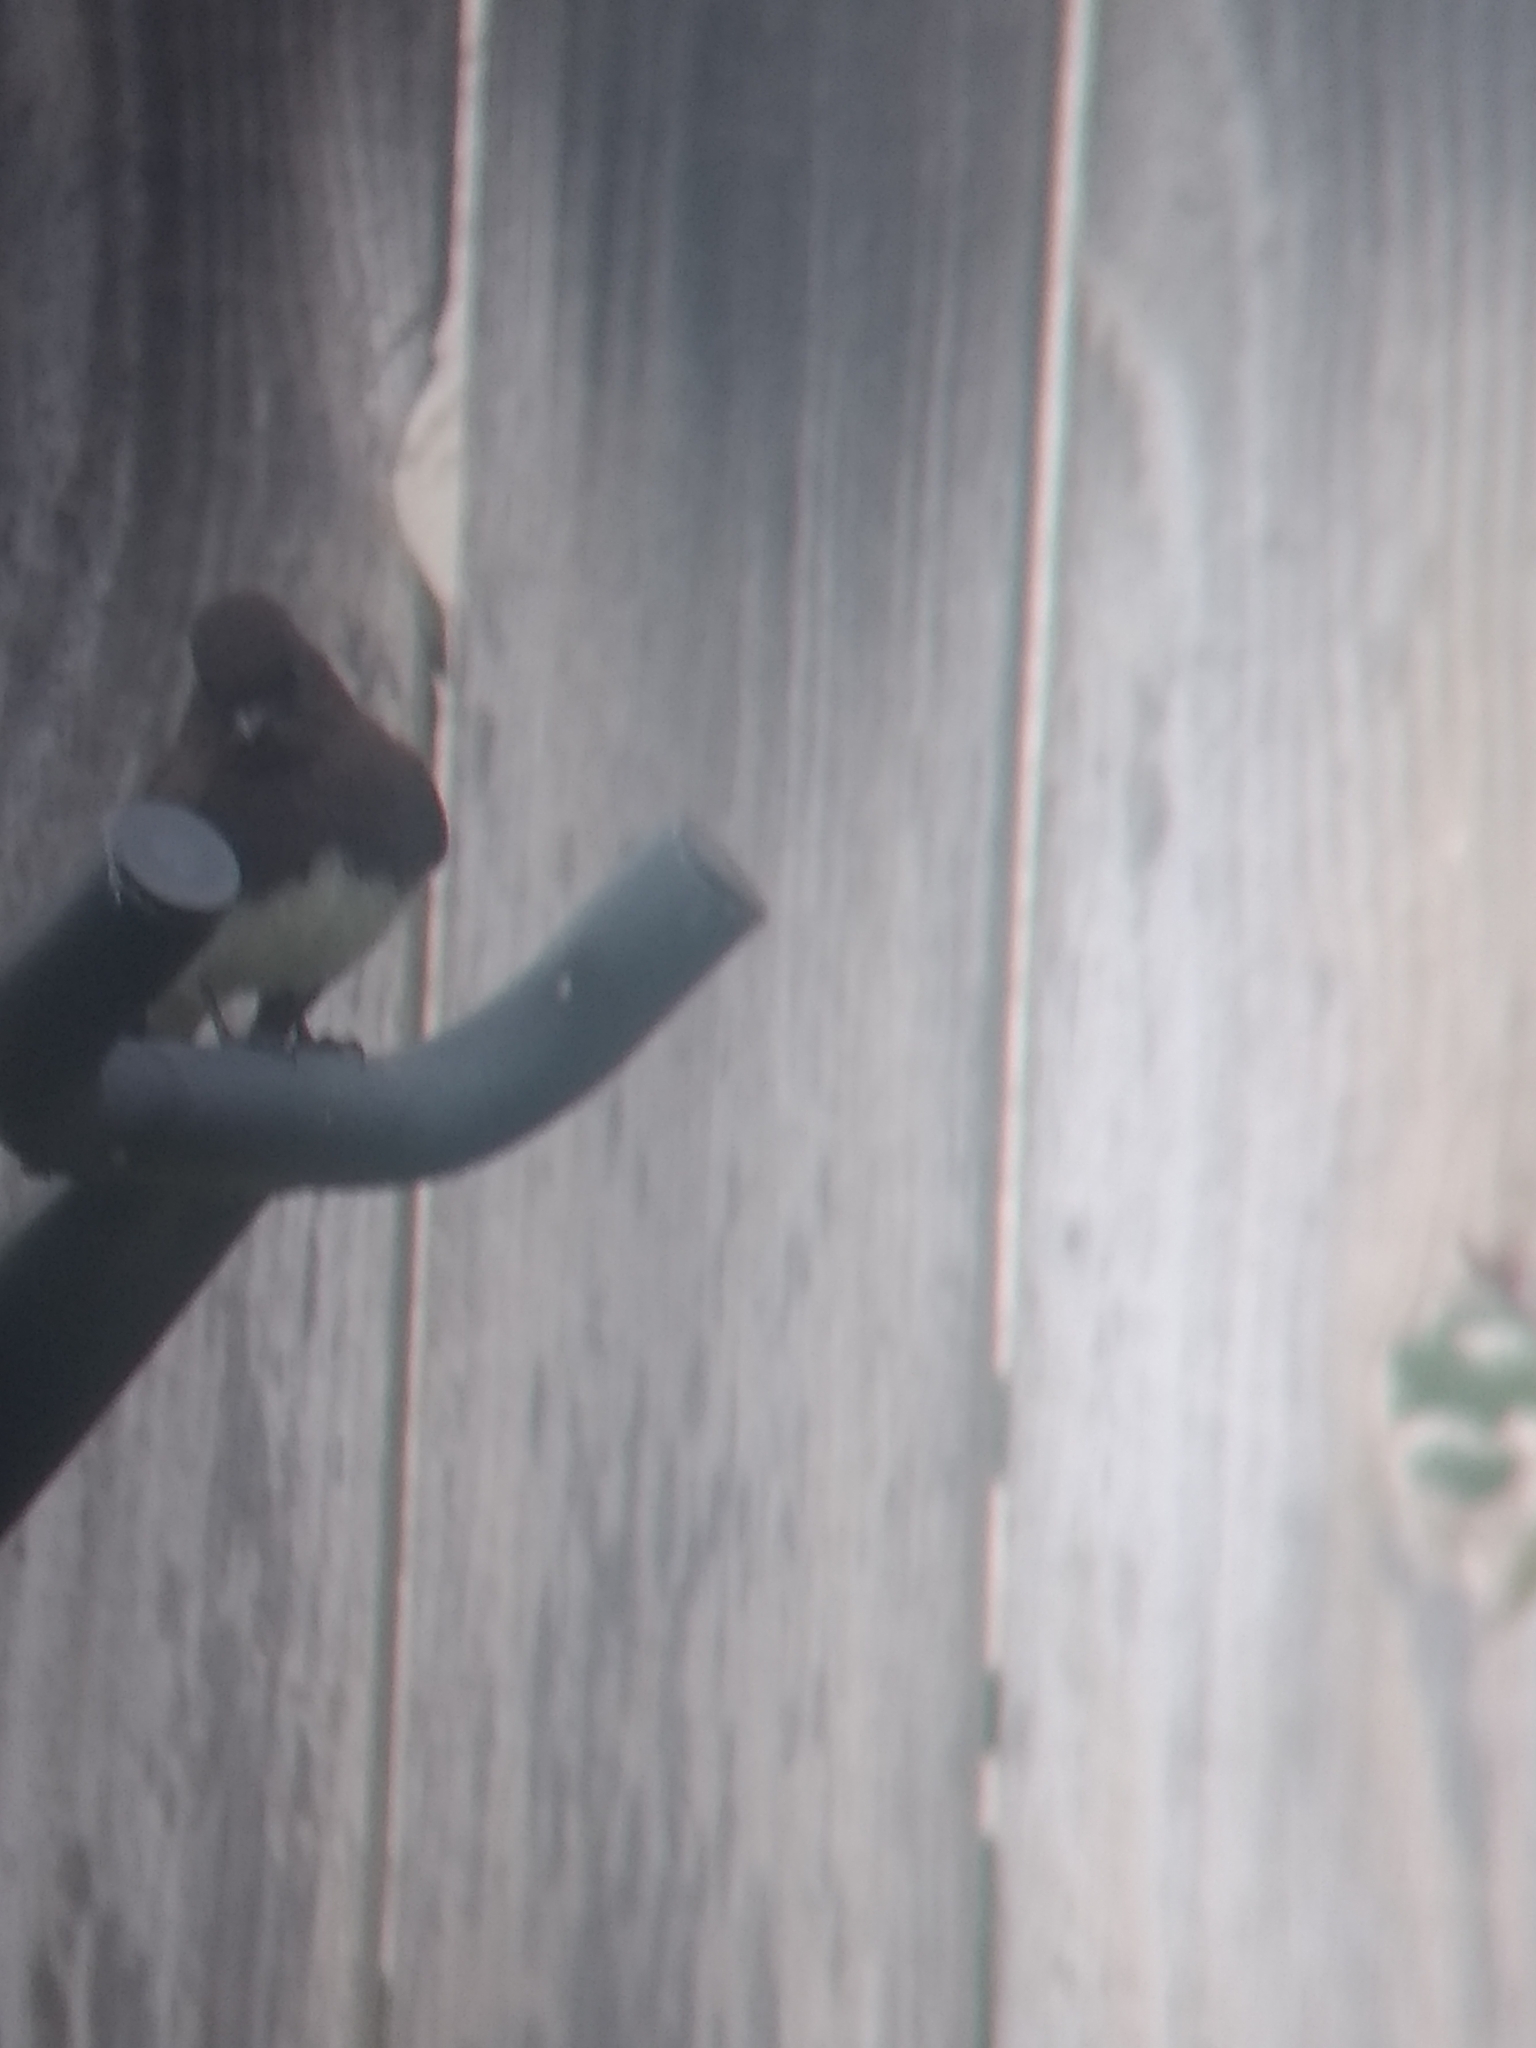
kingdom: Animalia
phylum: Chordata
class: Aves
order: Passeriformes
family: Tyrannidae
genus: Sayornis
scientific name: Sayornis nigricans
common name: Black phoebe
